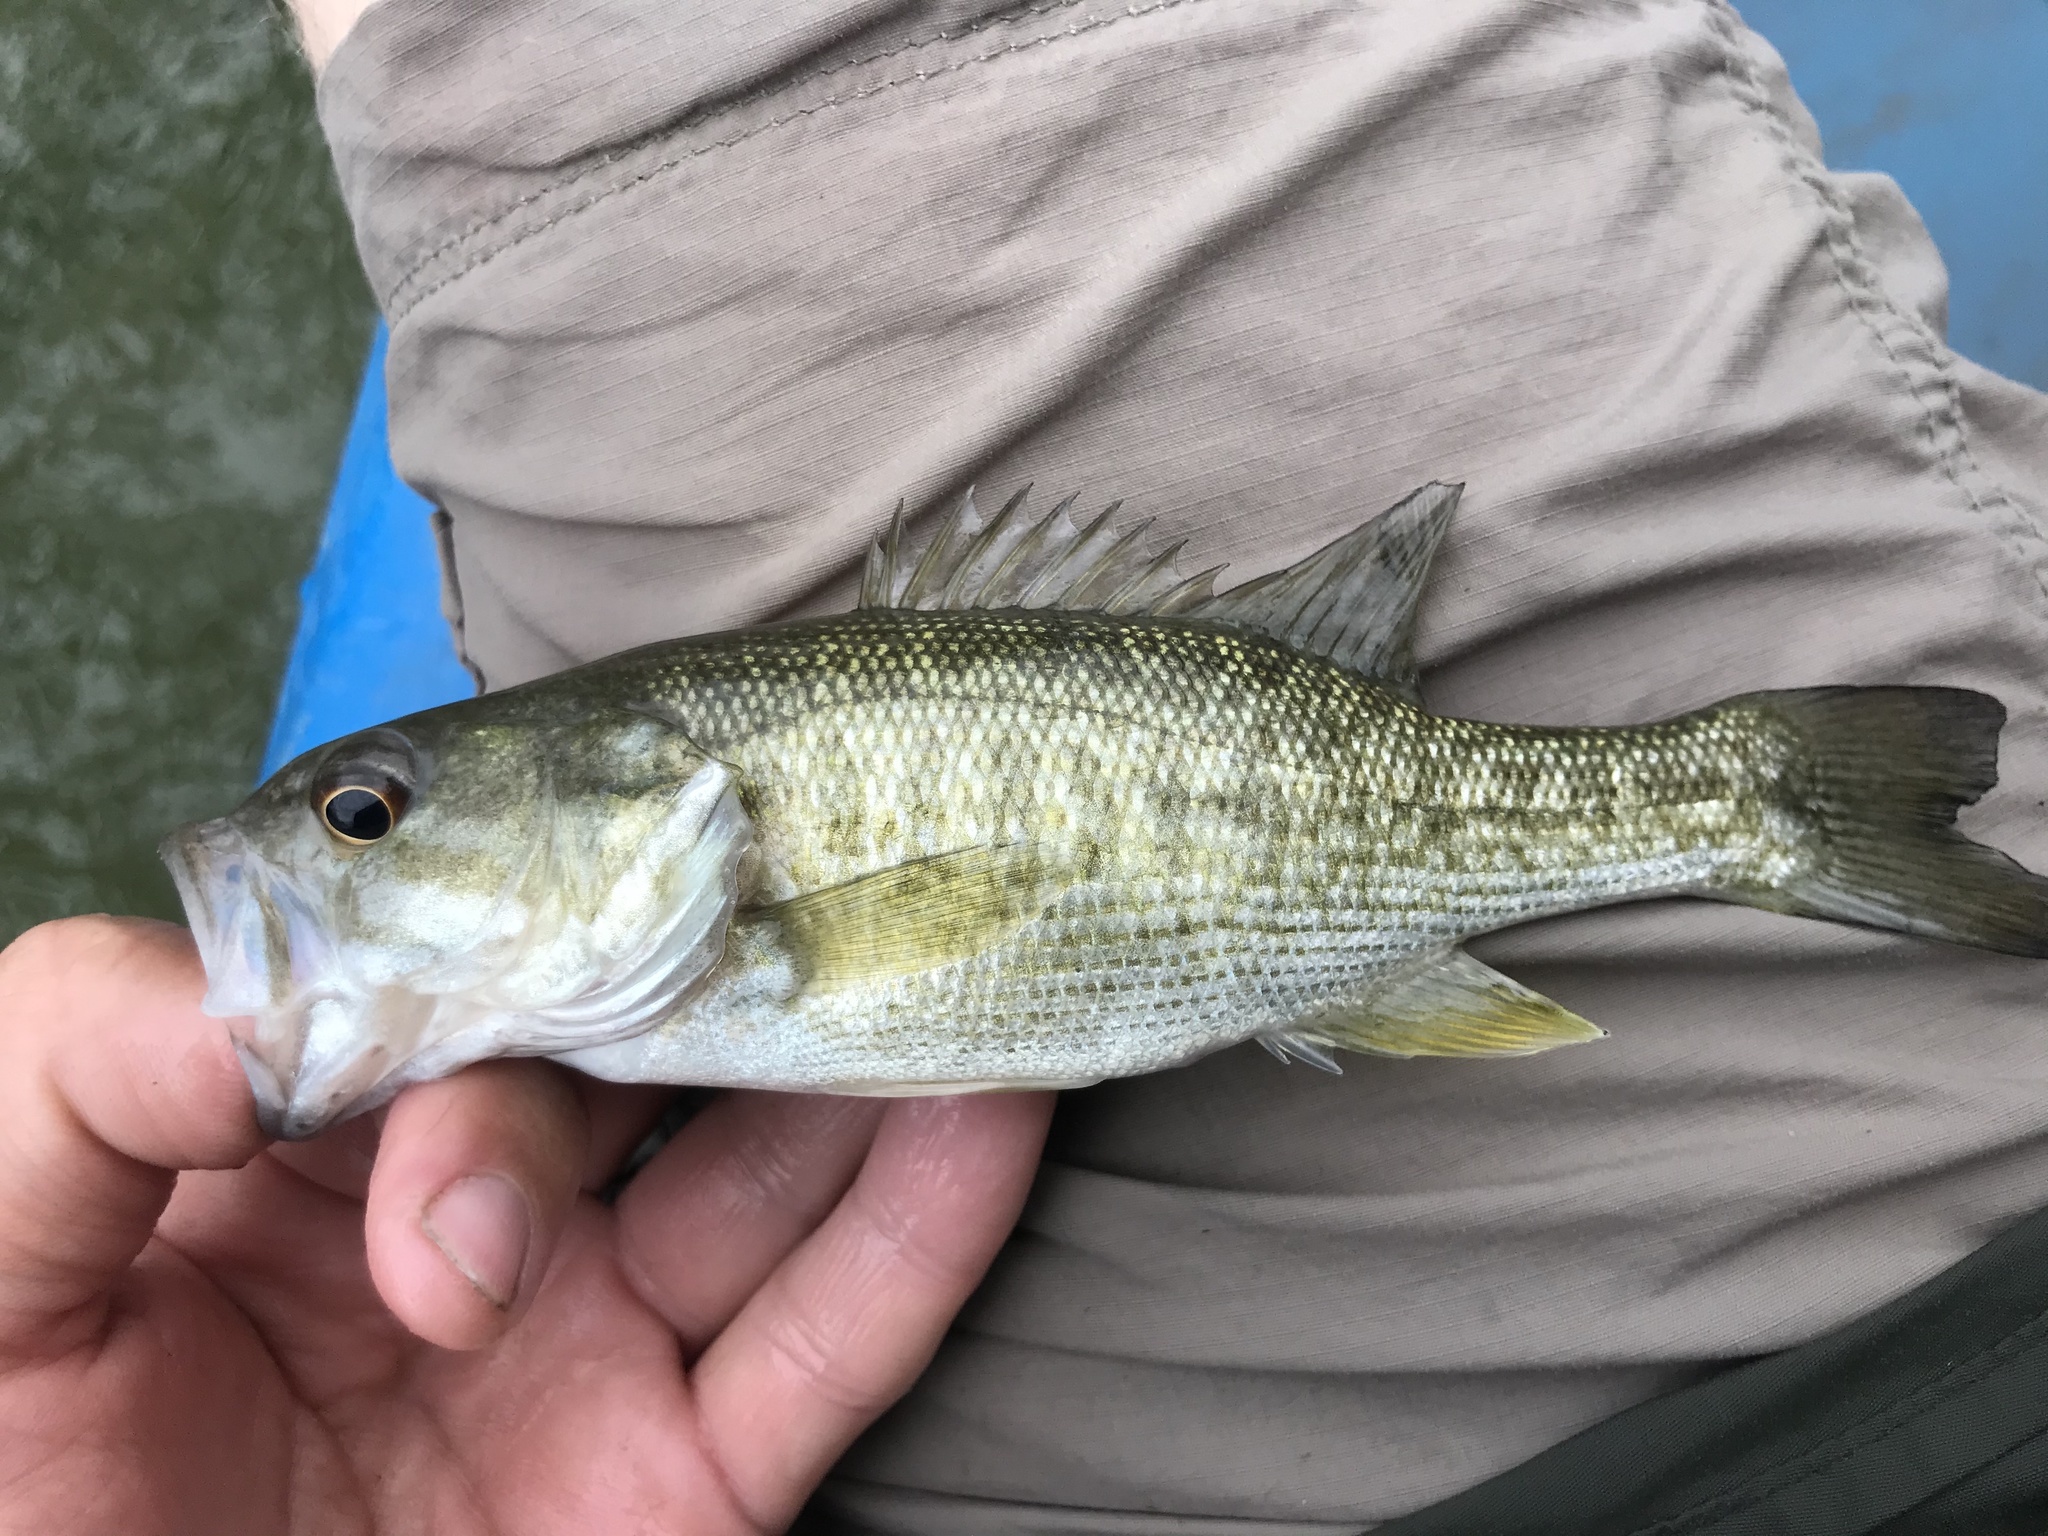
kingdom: Animalia
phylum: Chordata
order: Perciformes
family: Centrarchidae
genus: Micropterus
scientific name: Micropterus treculii
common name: Guadalupe bass
